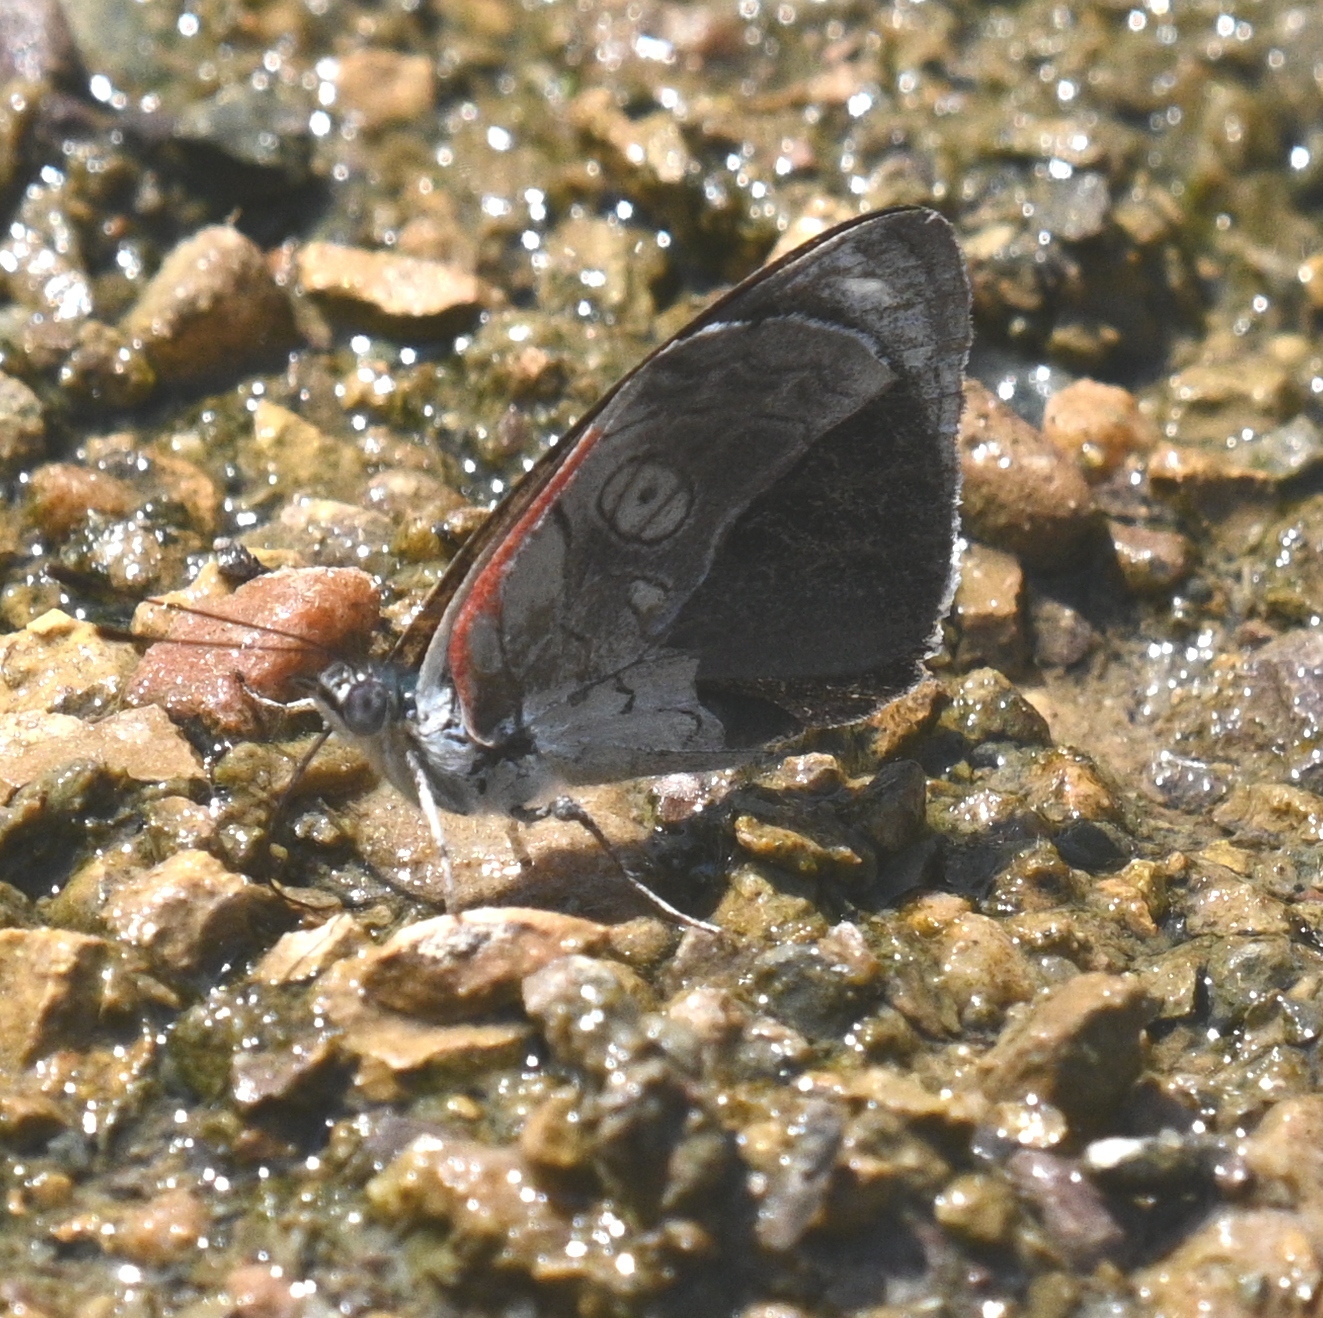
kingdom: Animalia
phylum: Arthropoda
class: Insecta
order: Lepidoptera
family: Nymphalidae
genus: Diaethria
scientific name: Diaethria ceryx
